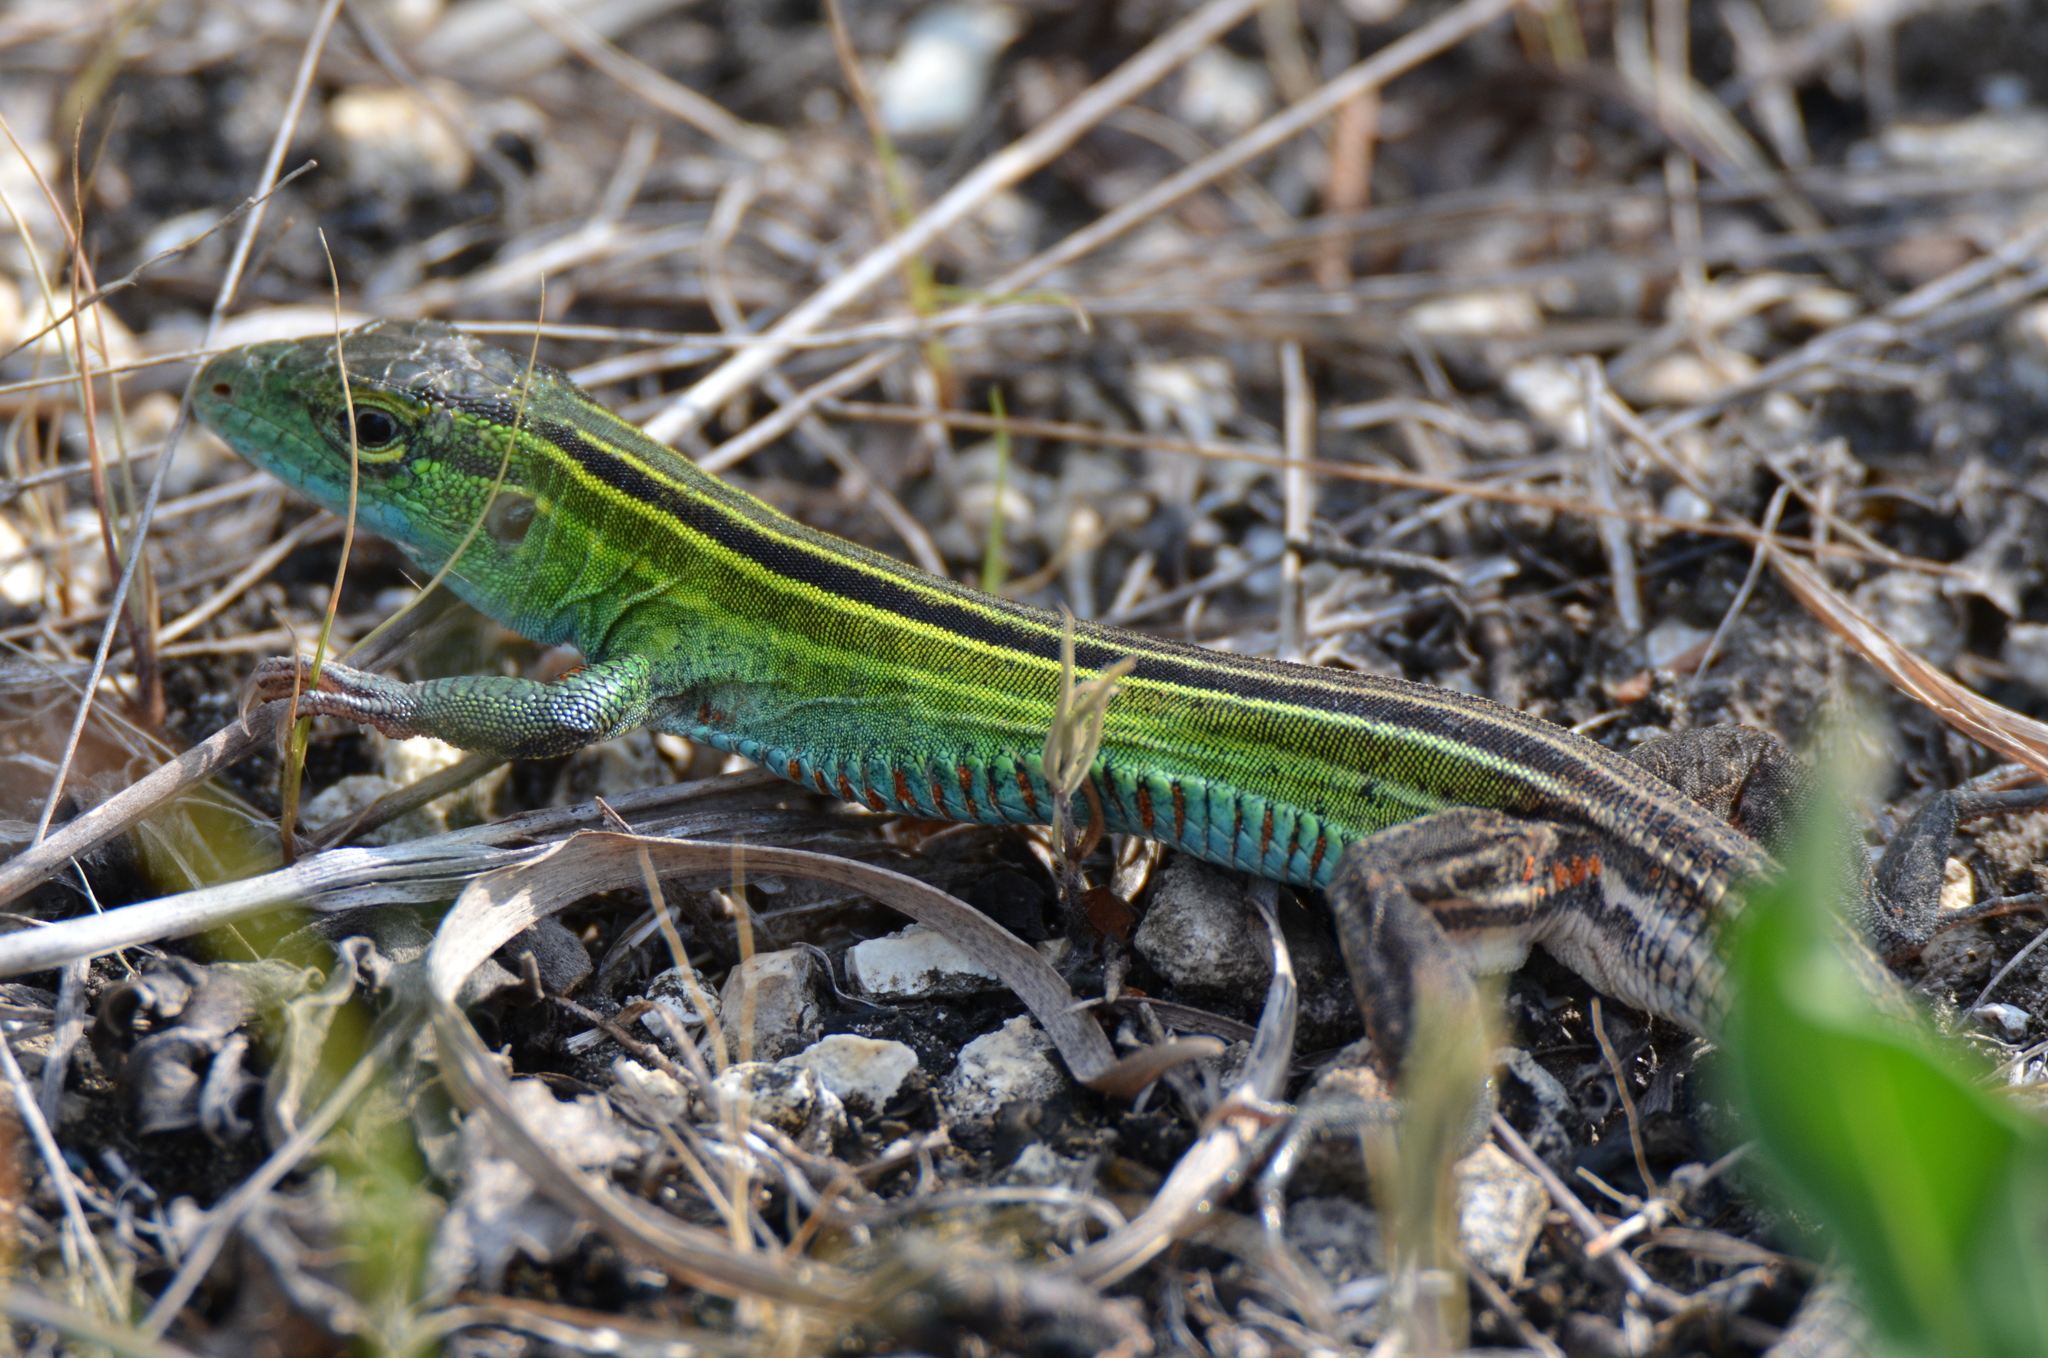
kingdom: Animalia
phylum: Chordata
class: Squamata
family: Teiidae
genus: Aspidoscelis
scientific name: Aspidoscelis sexlineatus
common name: Six-lined racerunner
